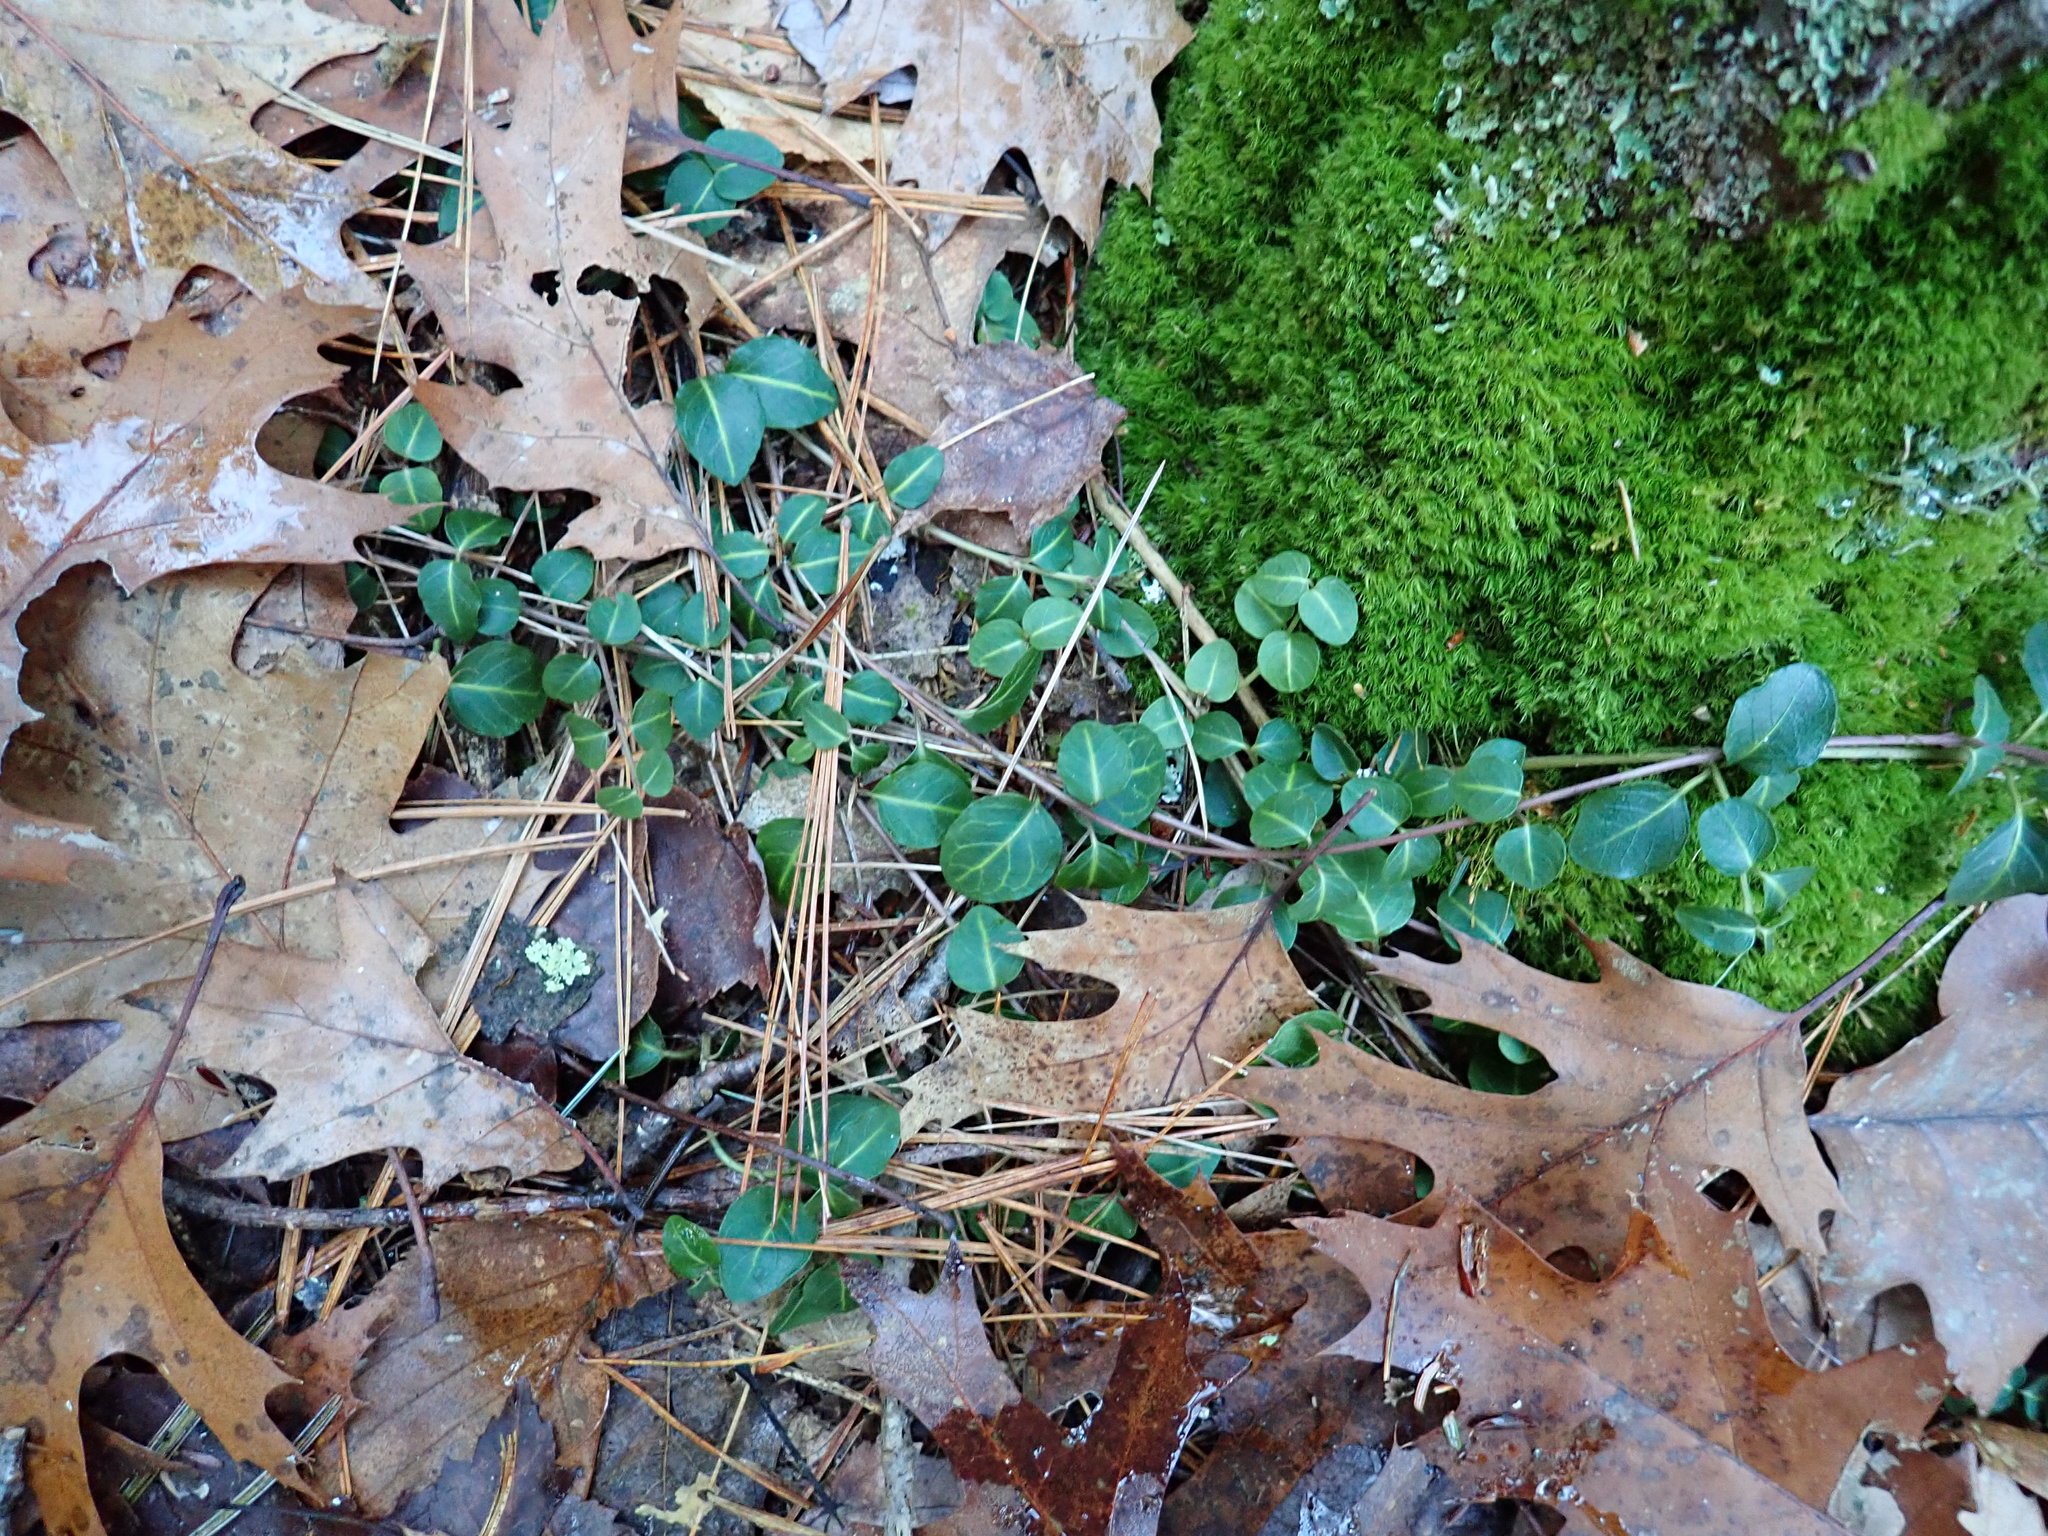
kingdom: Plantae
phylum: Tracheophyta
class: Magnoliopsida
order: Gentianales
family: Rubiaceae
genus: Mitchella
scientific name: Mitchella repens
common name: Partridge-berry
